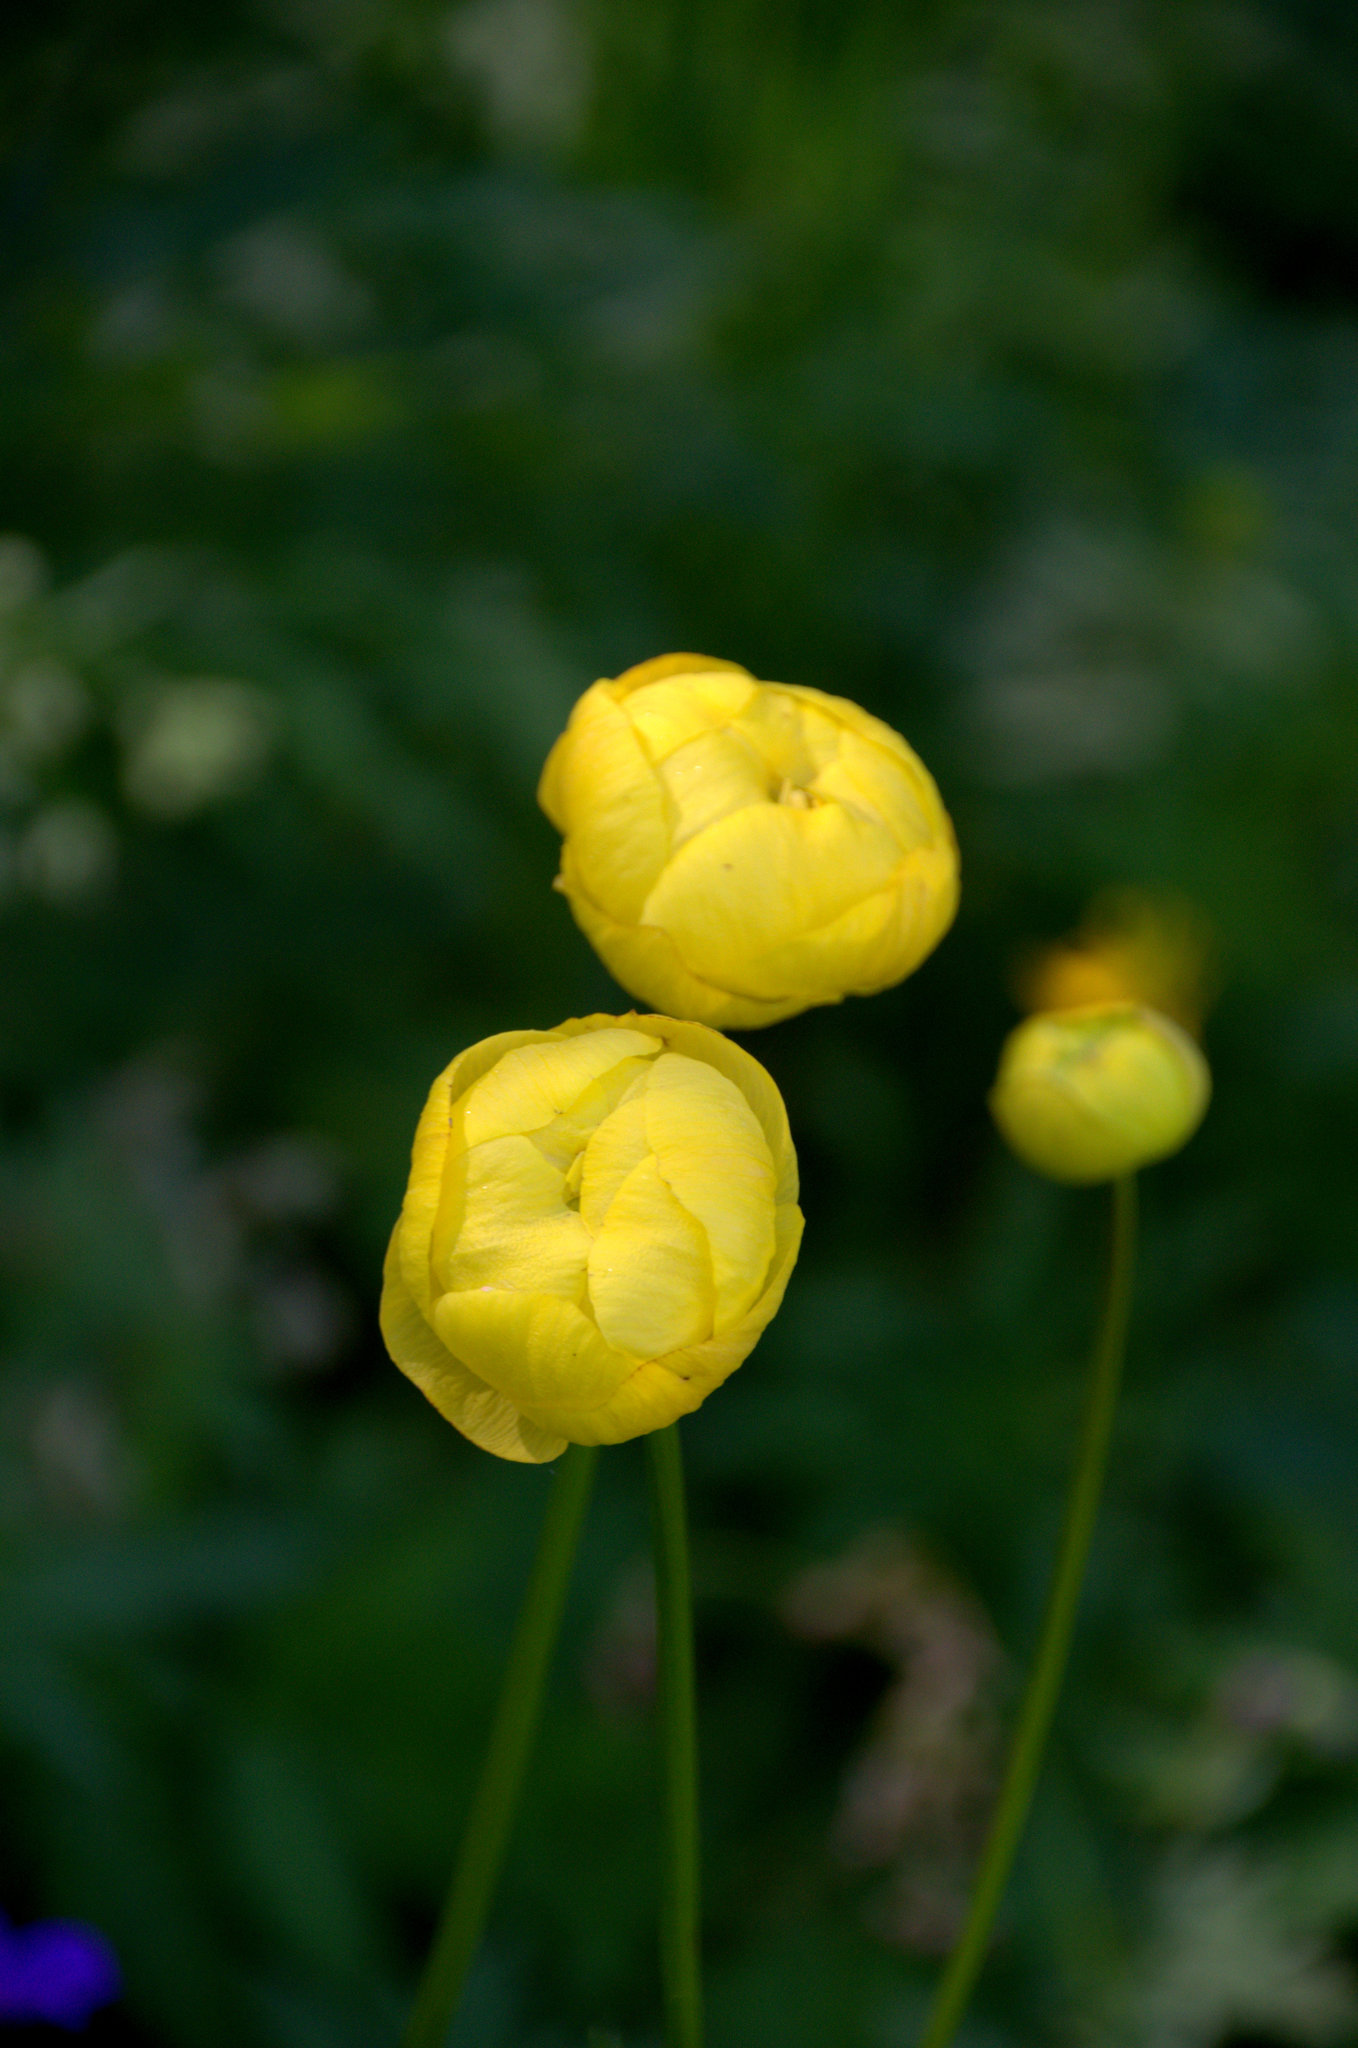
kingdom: Plantae
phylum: Tracheophyta
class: Magnoliopsida
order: Ranunculales
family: Ranunculaceae
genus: Trollius
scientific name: Trollius europaeus
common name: European globeflower
